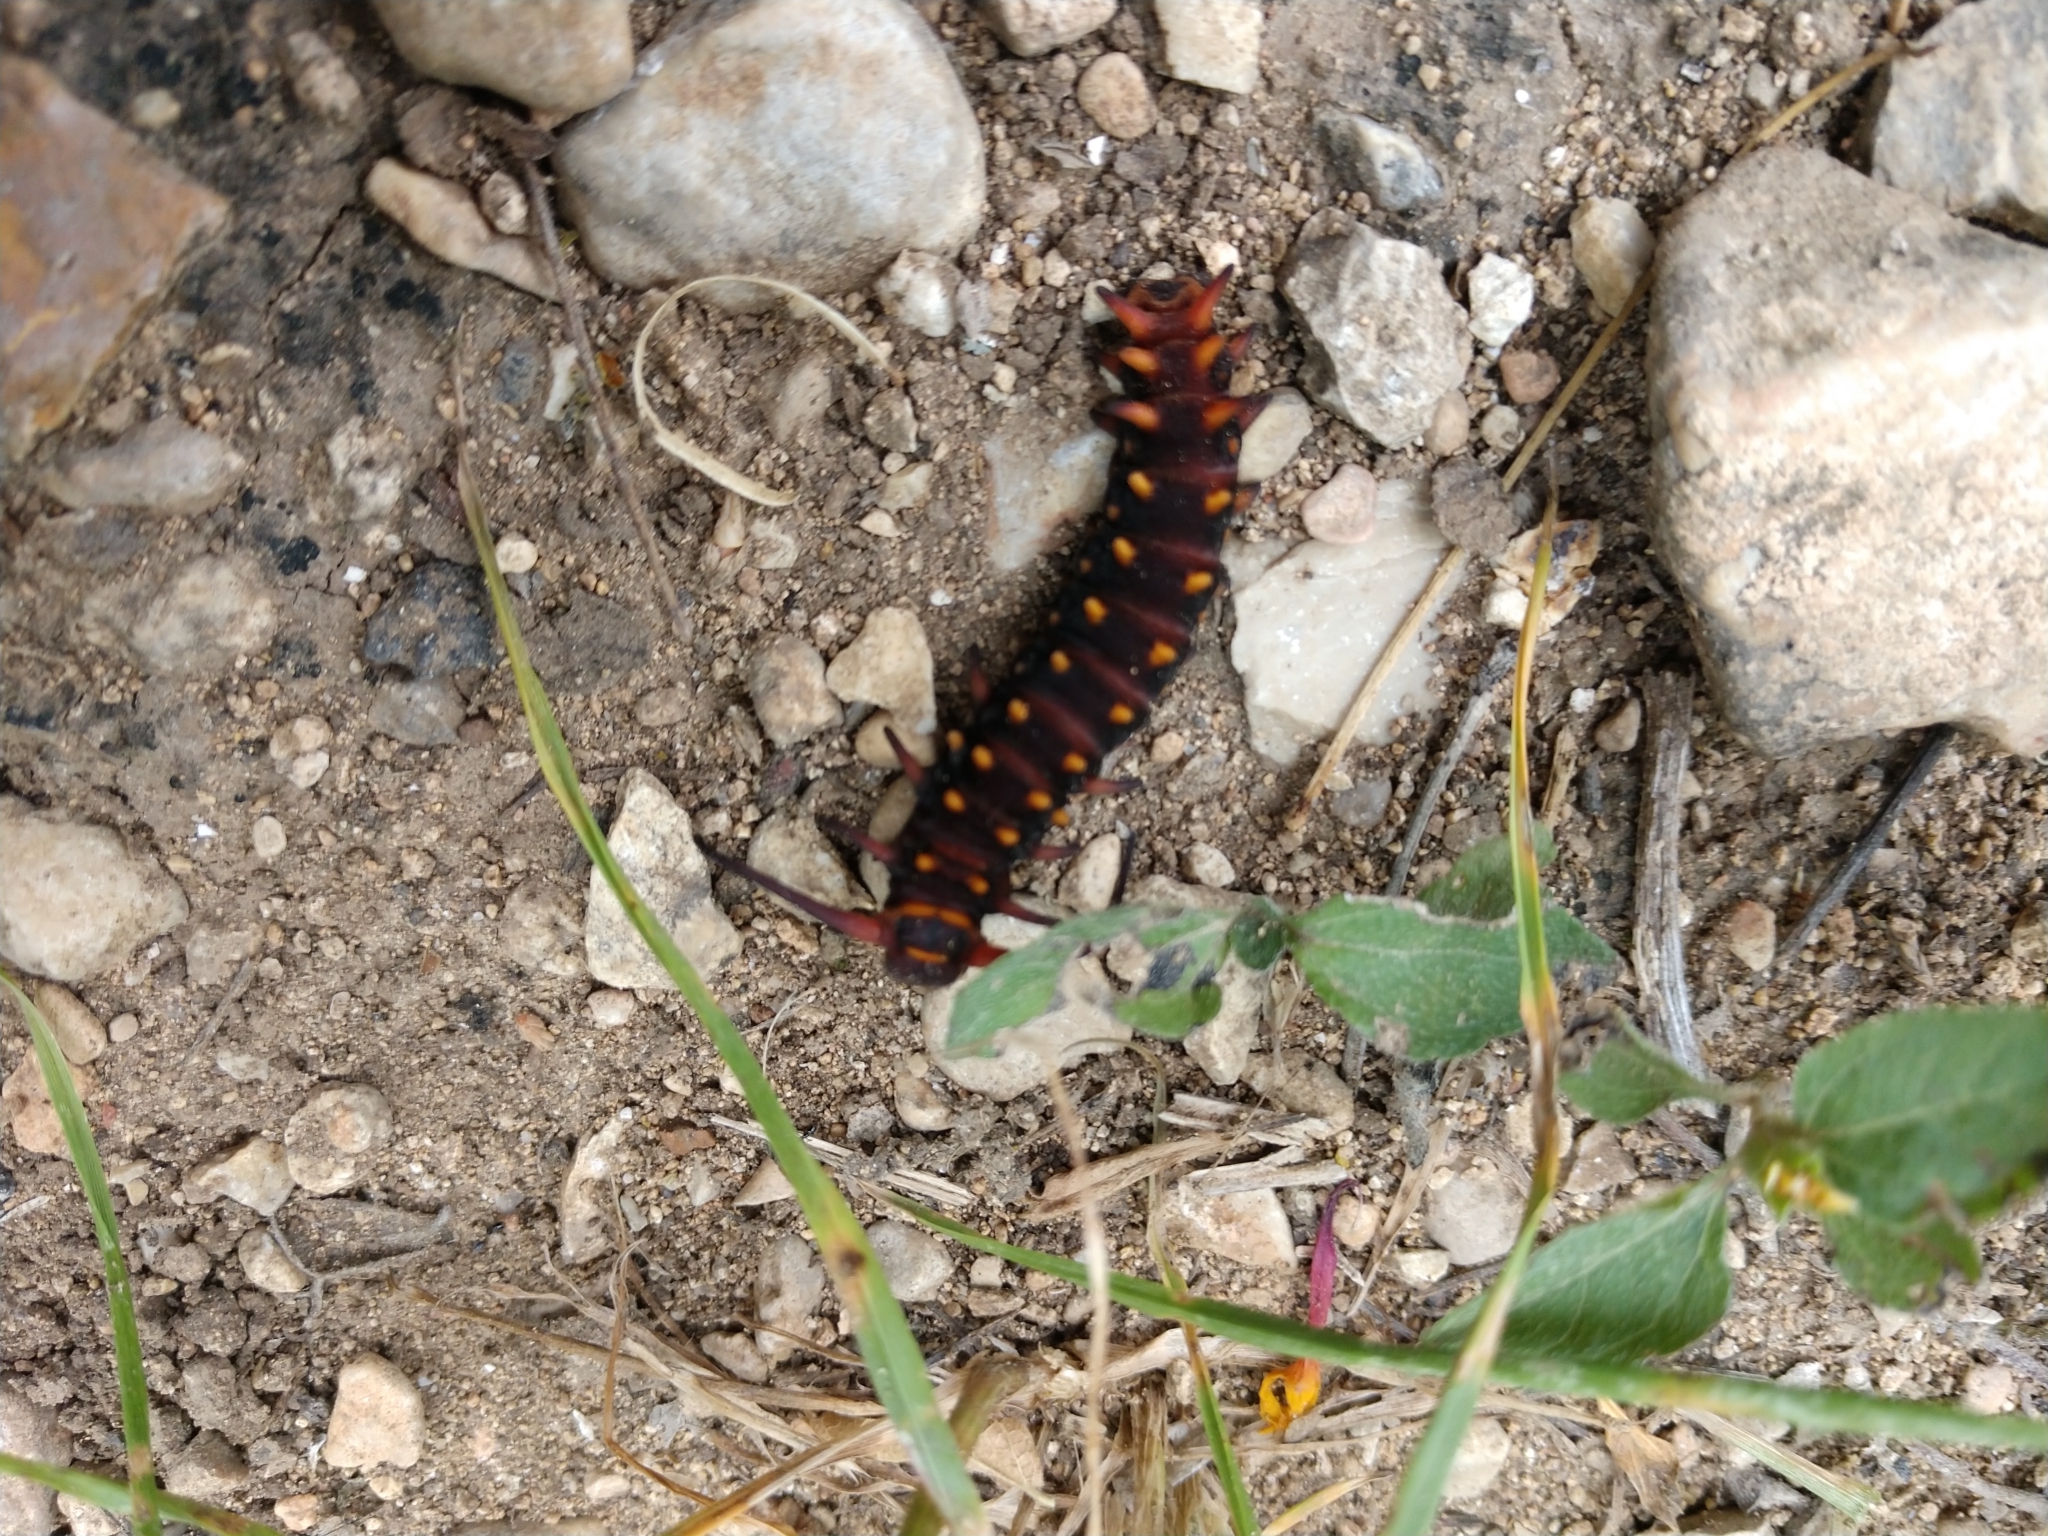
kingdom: Animalia
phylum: Arthropoda
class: Insecta
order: Lepidoptera
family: Papilionidae
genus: Battus
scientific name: Battus philenor
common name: Pipevine swallowtail
